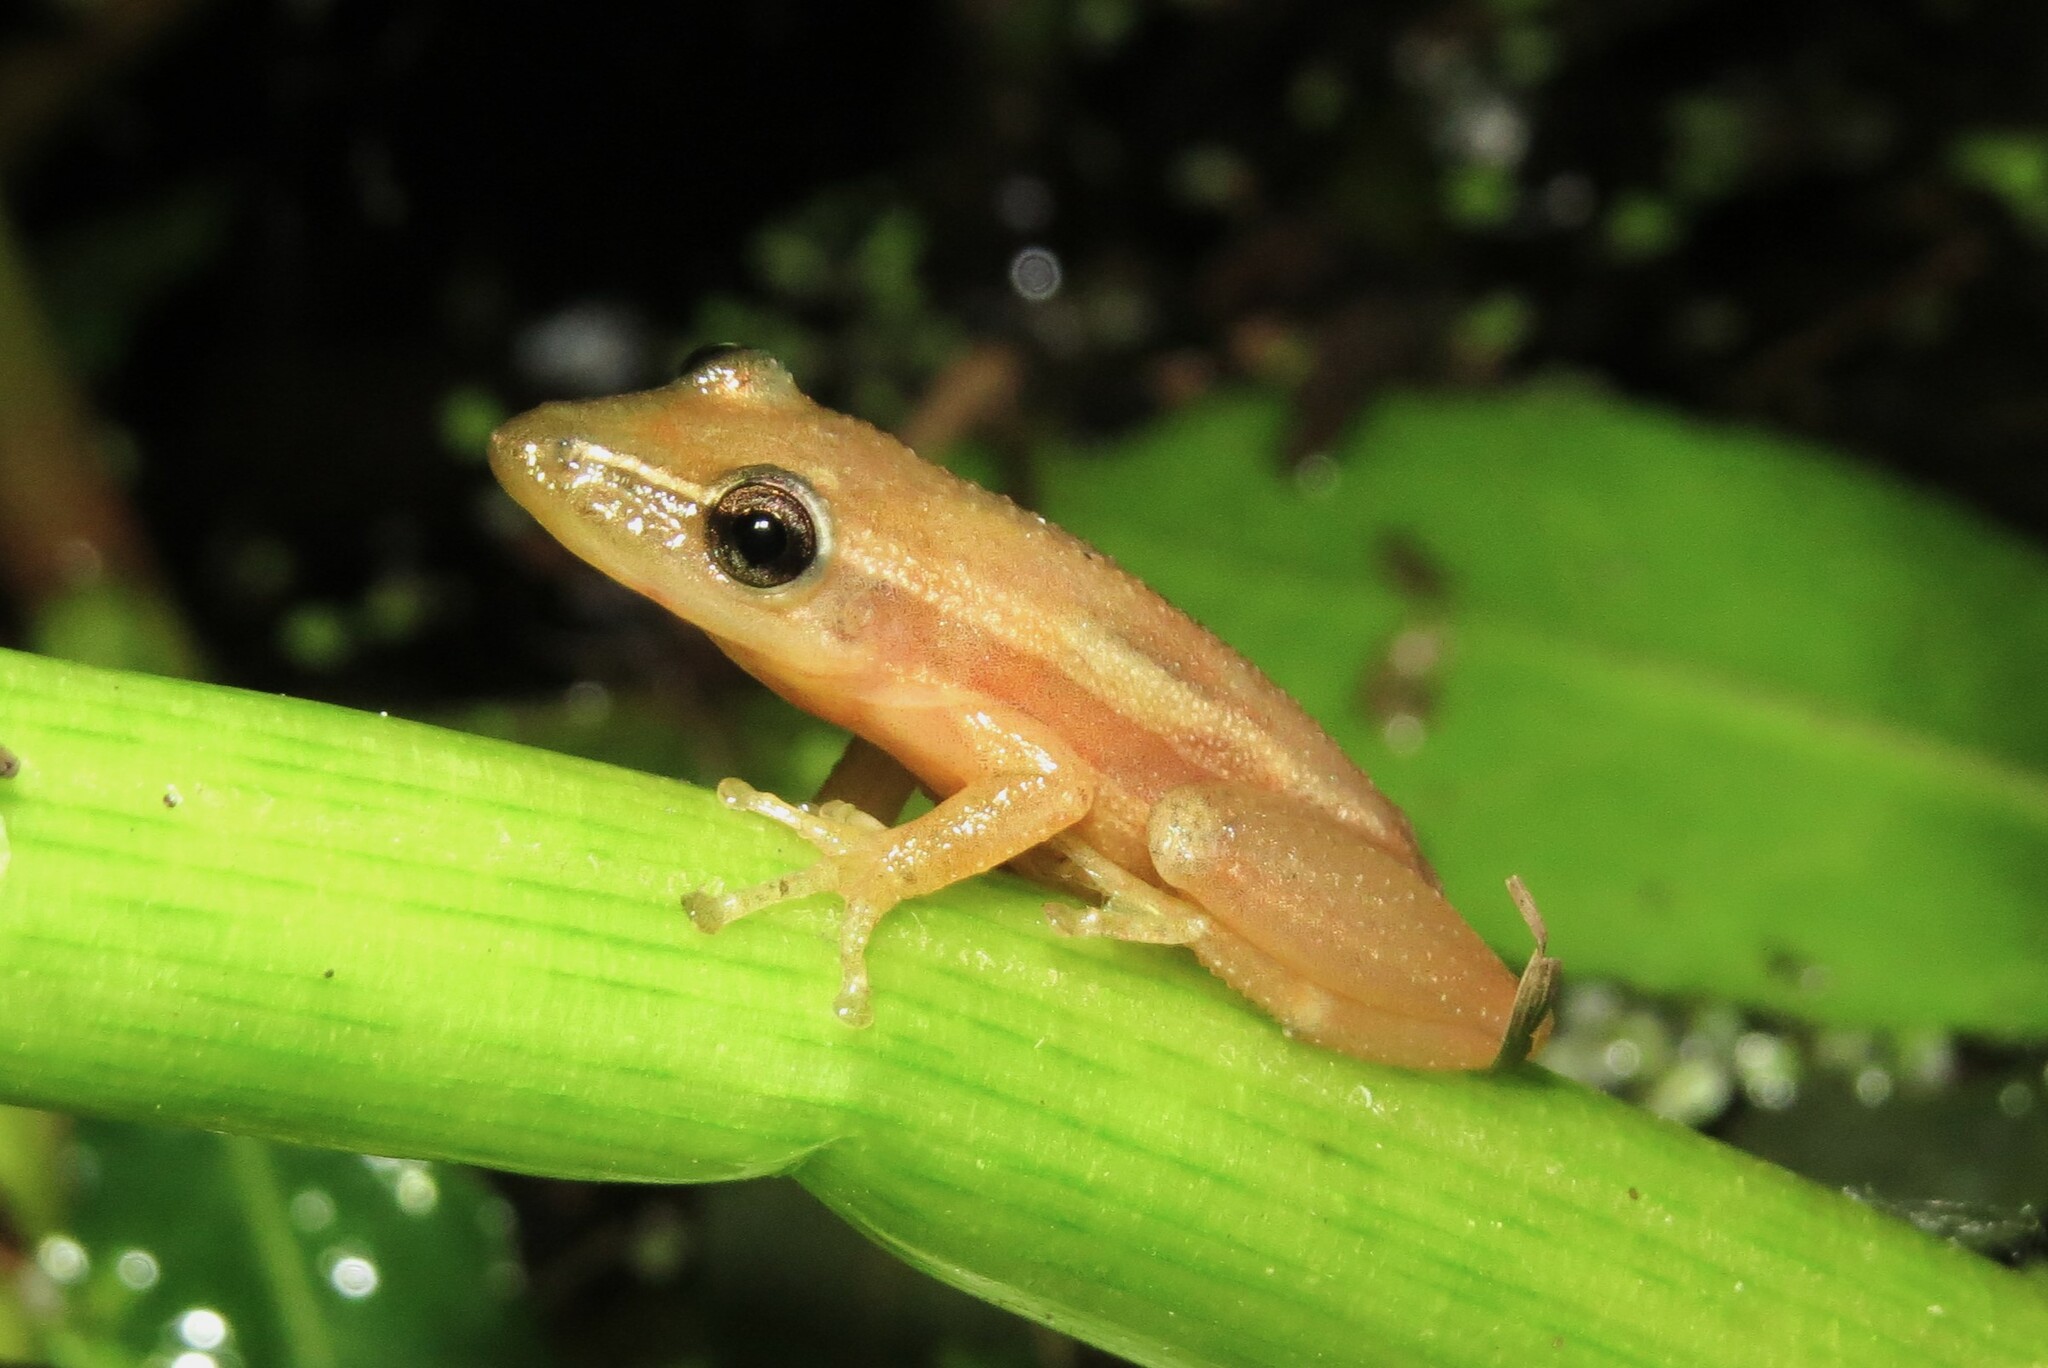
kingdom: Animalia
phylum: Chordata
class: Amphibia
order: Anura
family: Hylidae
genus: Scinax
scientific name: Scinax squalirostris
